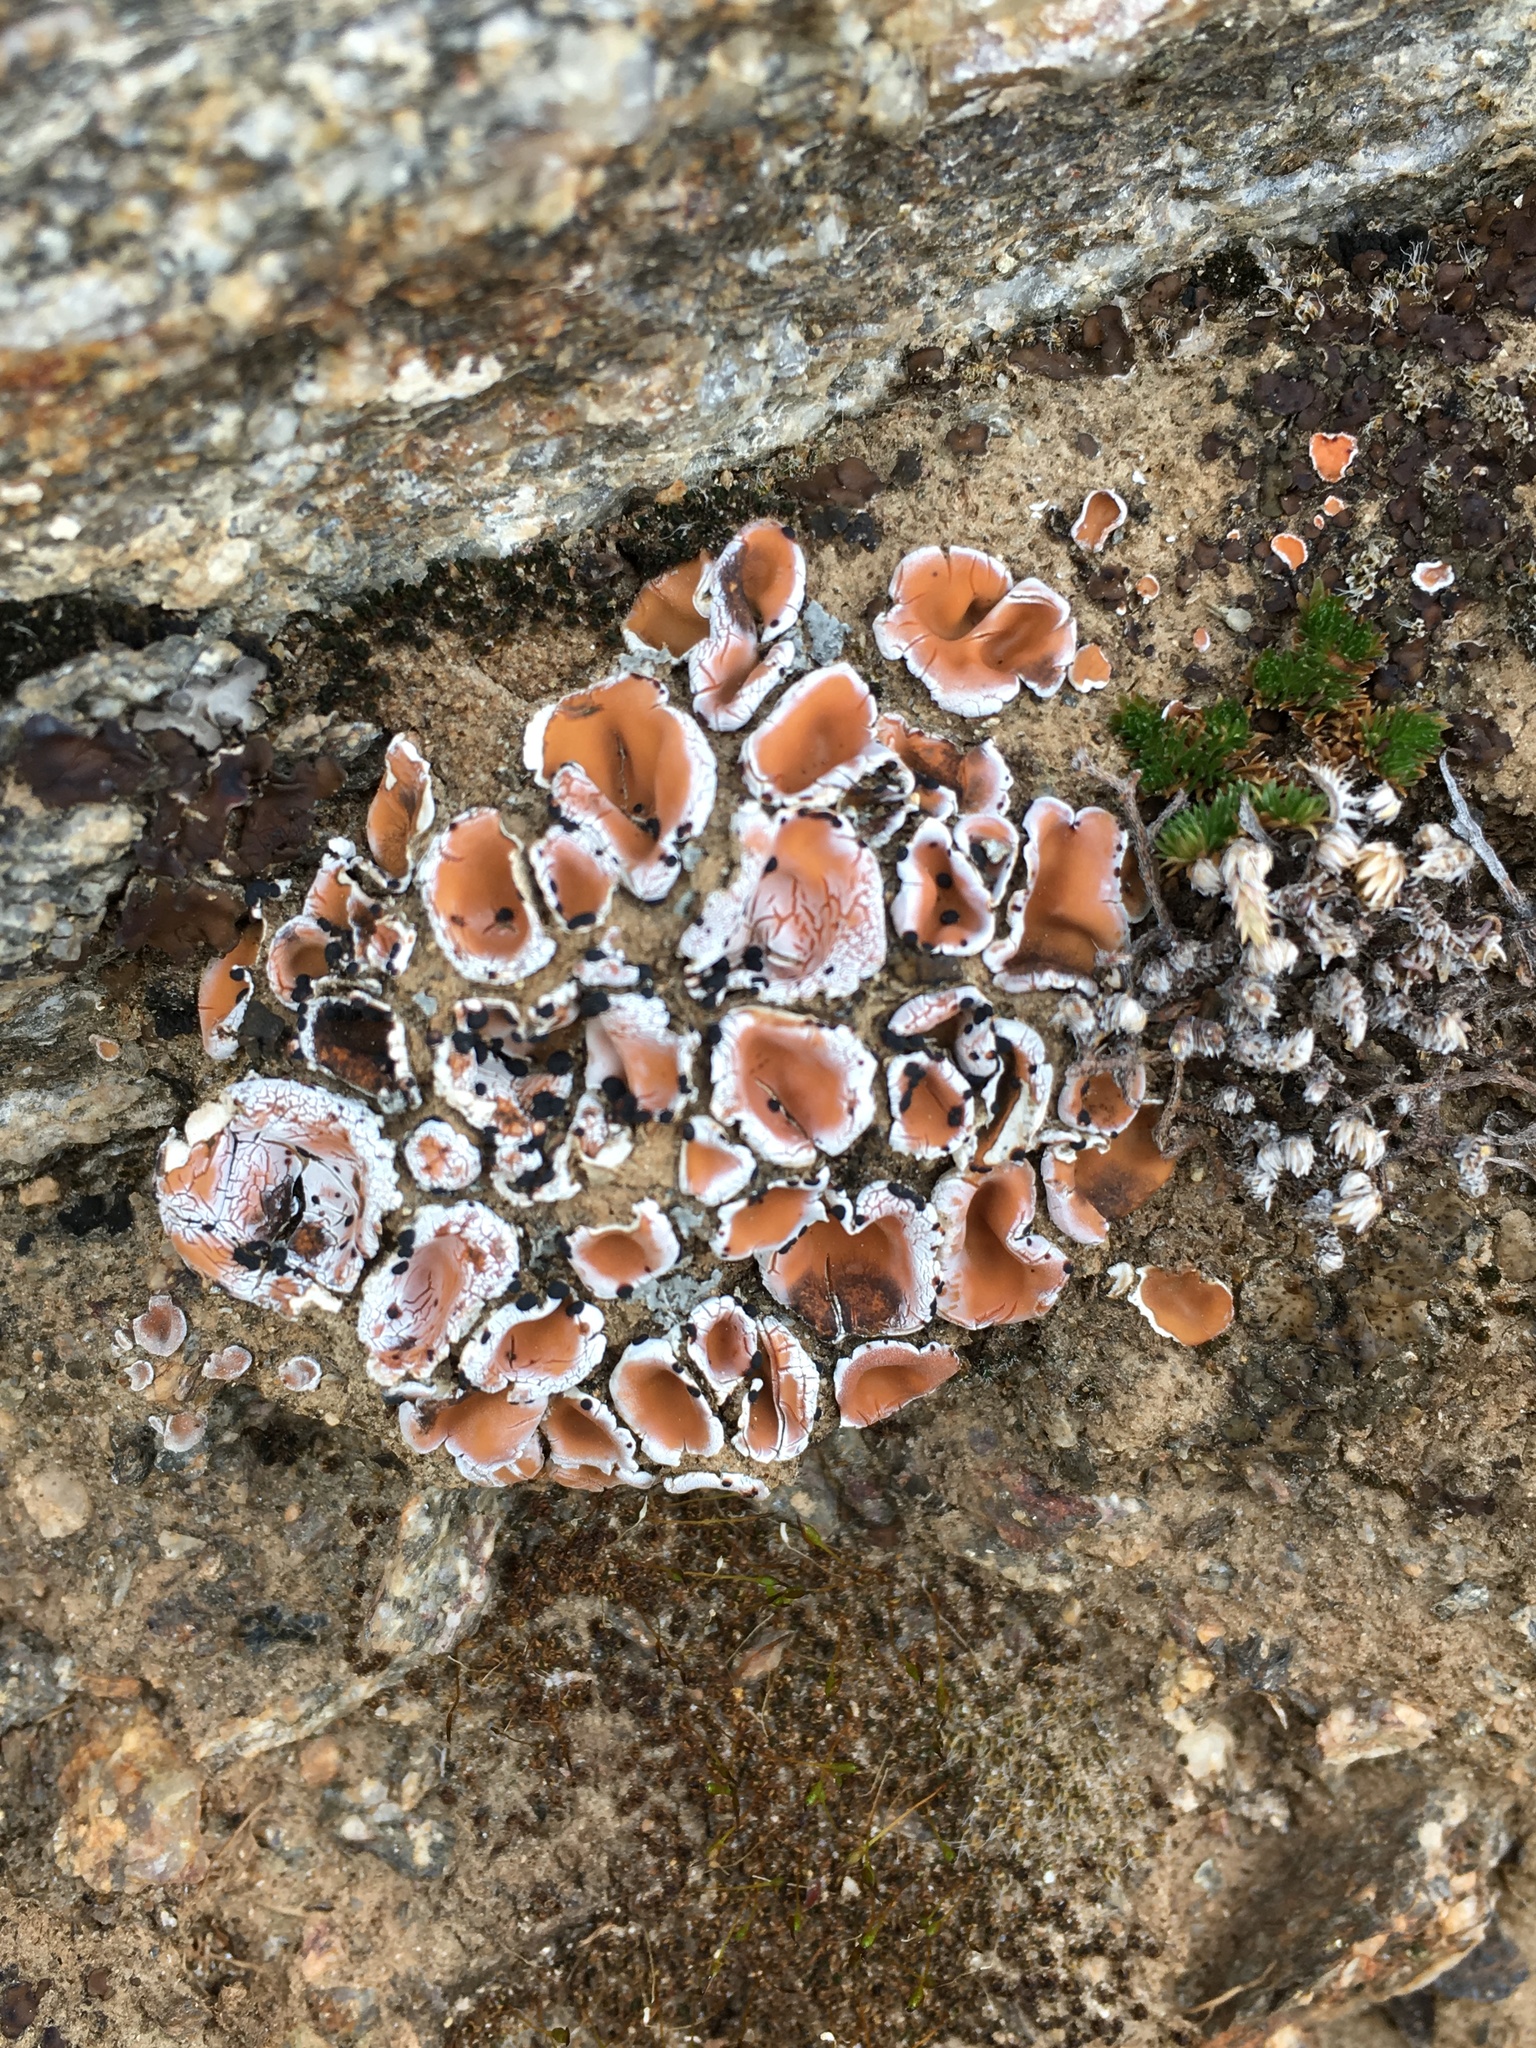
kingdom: Fungi
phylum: Ascomycota
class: Lecanoromycetes
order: Lecanorales
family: Psoraceae
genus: Psora
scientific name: Psora decipiens
